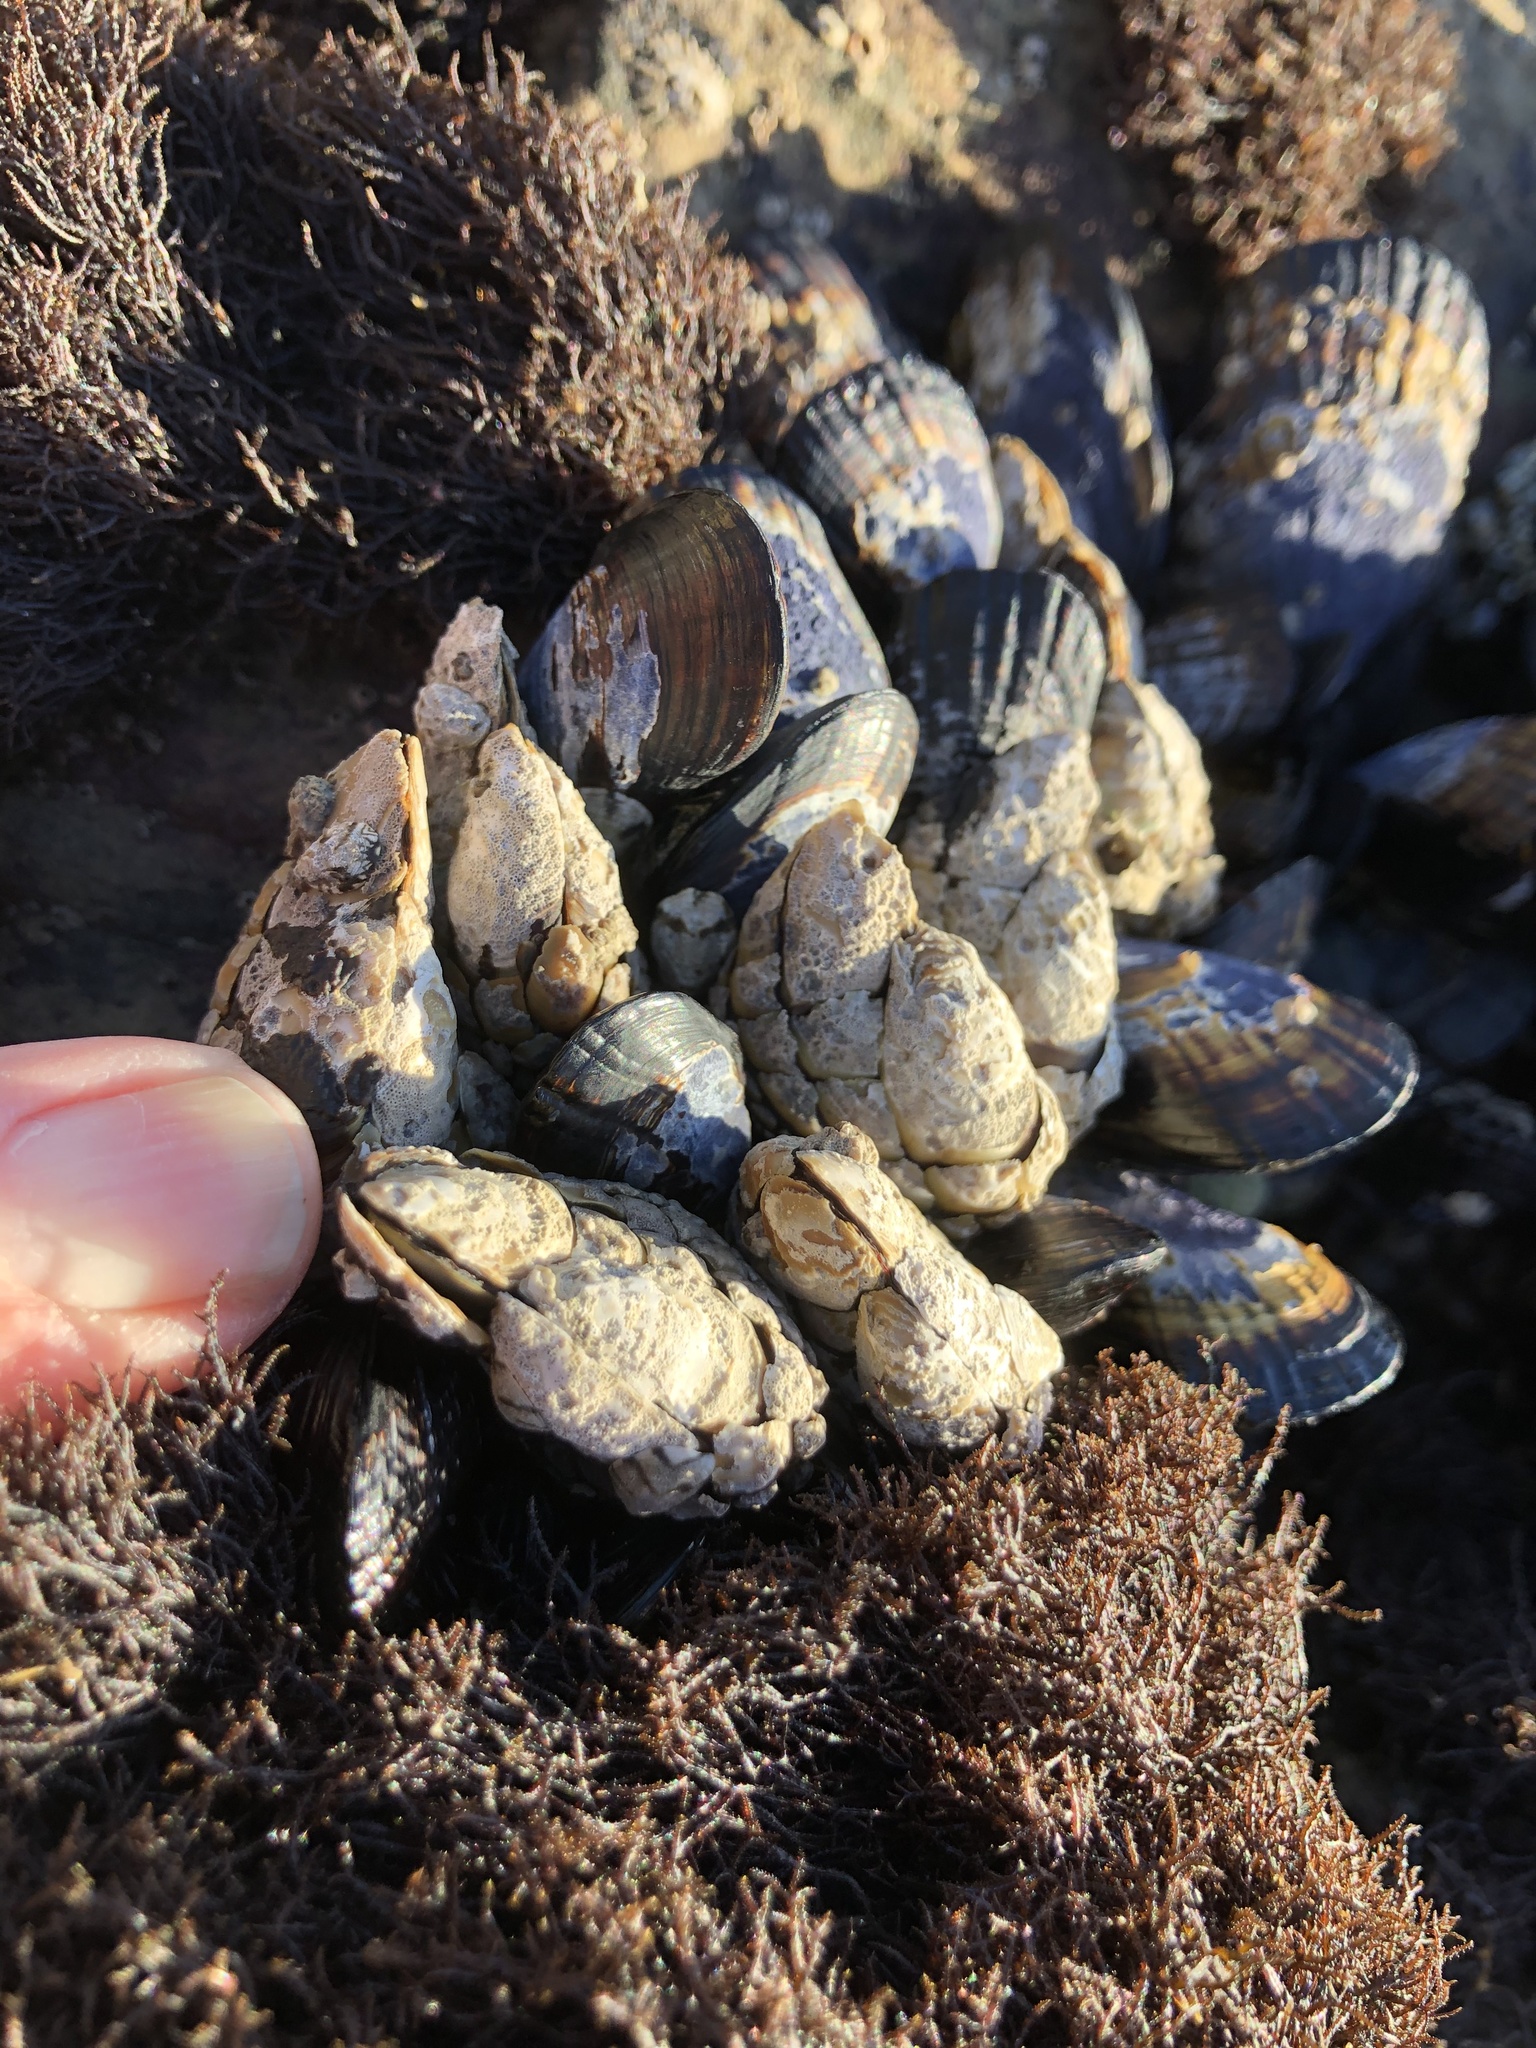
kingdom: Animalia
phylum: Arthropoda
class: Maxillopoda
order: Pedunculata
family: Pollicipedidae
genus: Pollicipes
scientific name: Pollicipes polymerus
